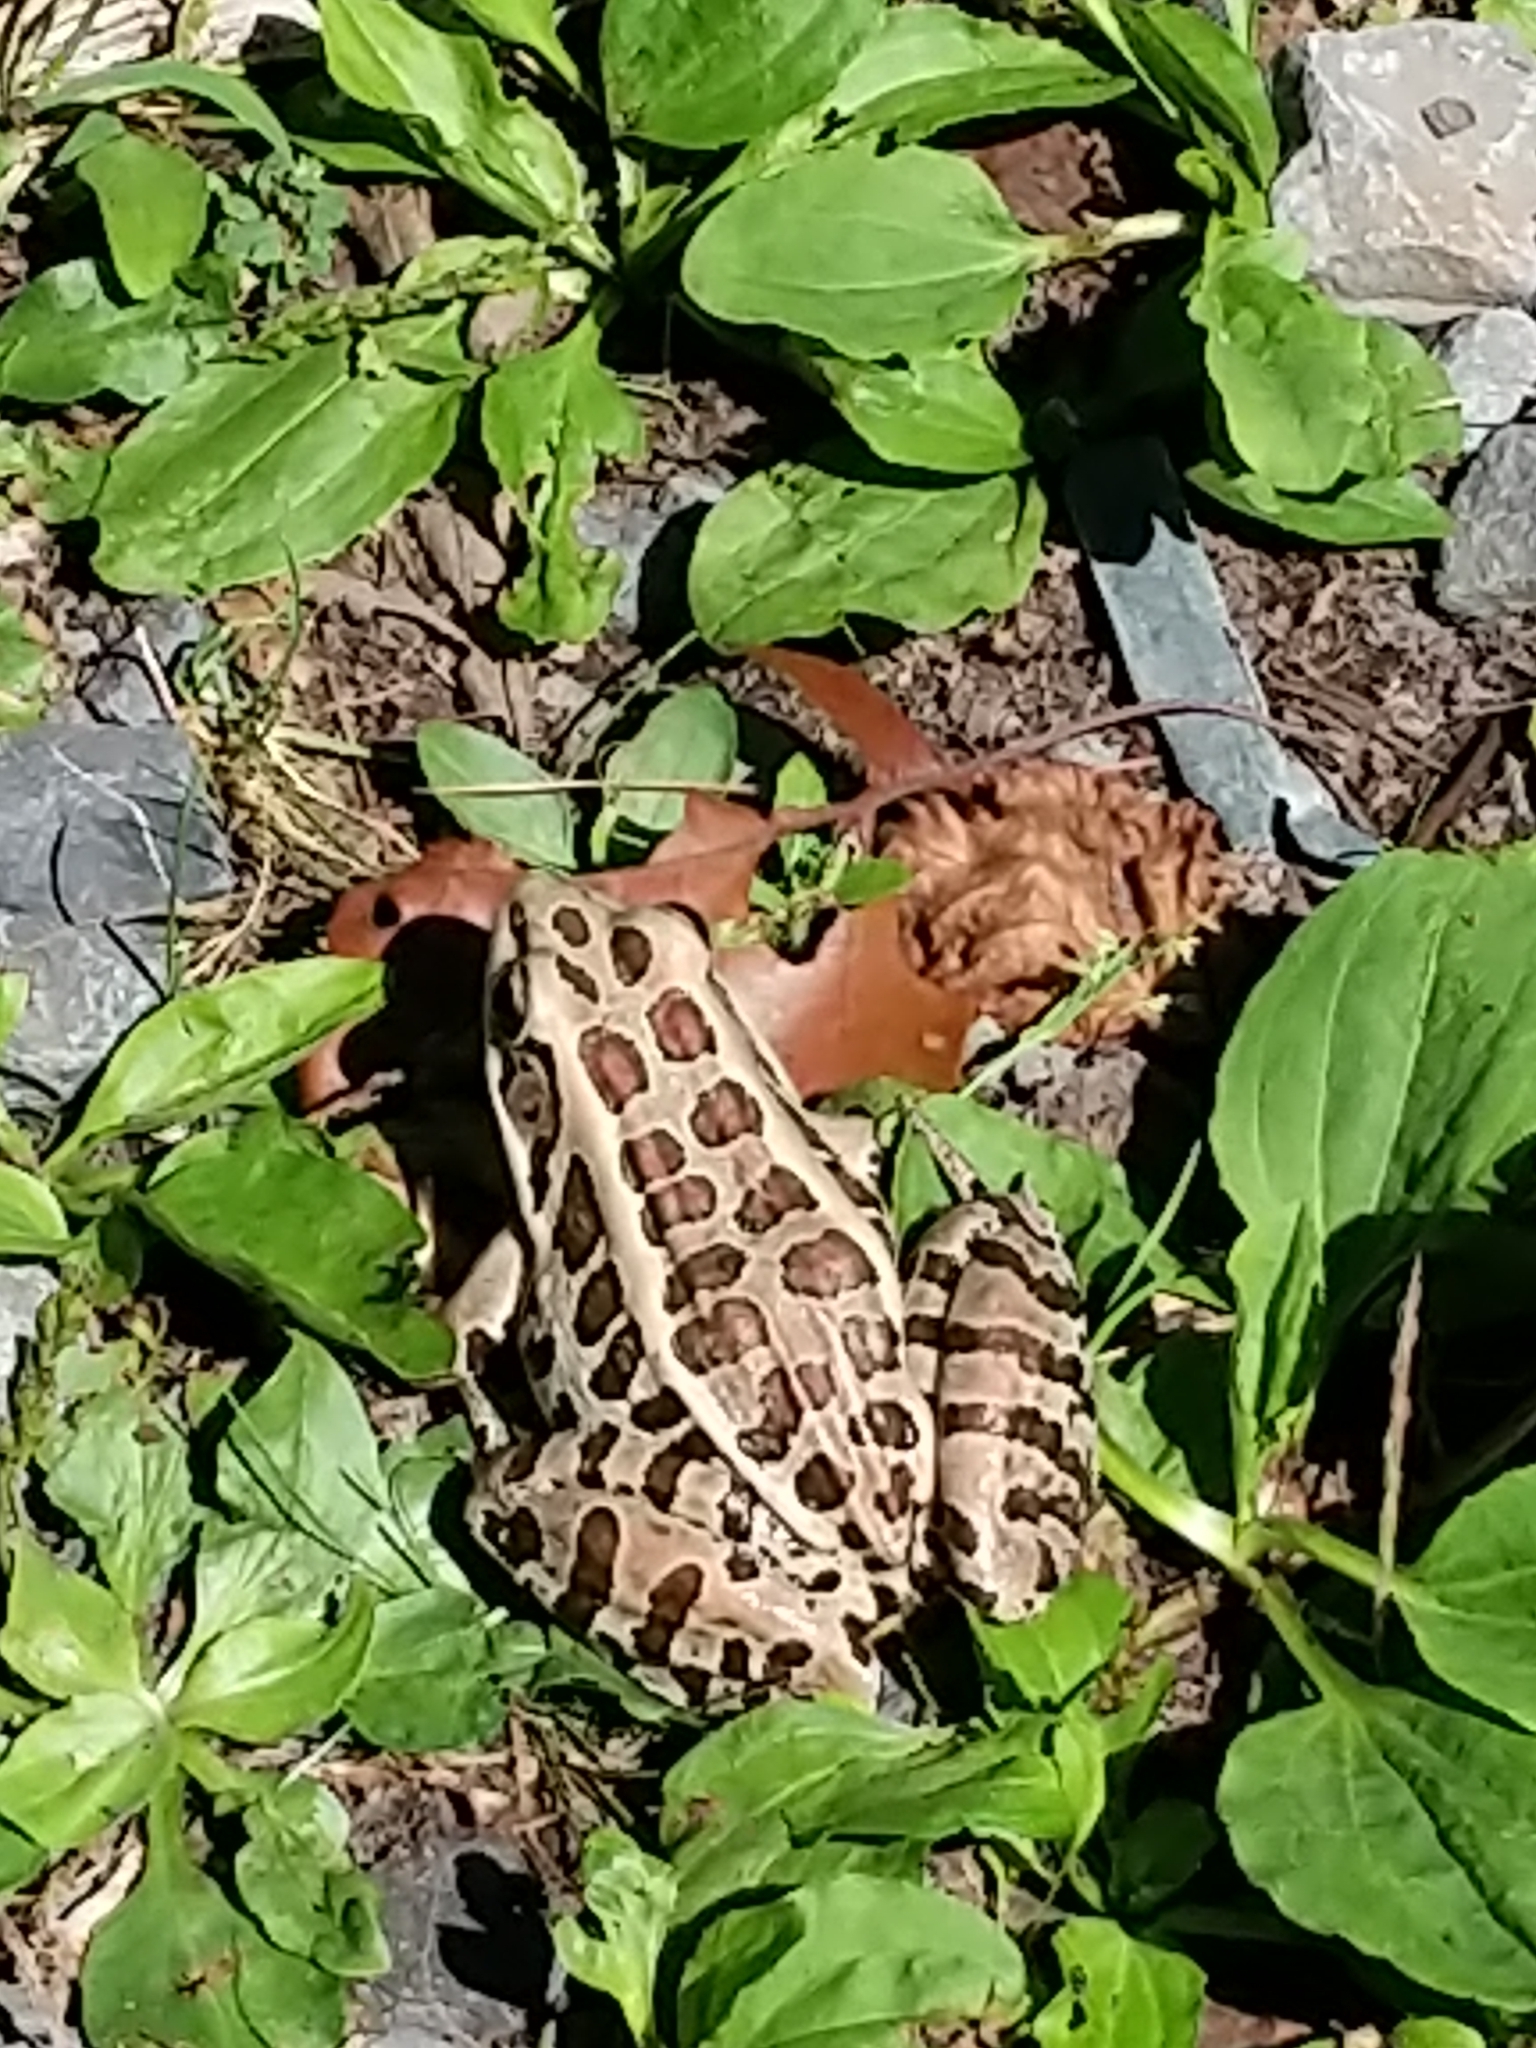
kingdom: Animalia
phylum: Chordata
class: Amphibia
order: Anura
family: Ranidae
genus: Lithobates
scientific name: Lithobates palustris
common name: Pickerel frog
